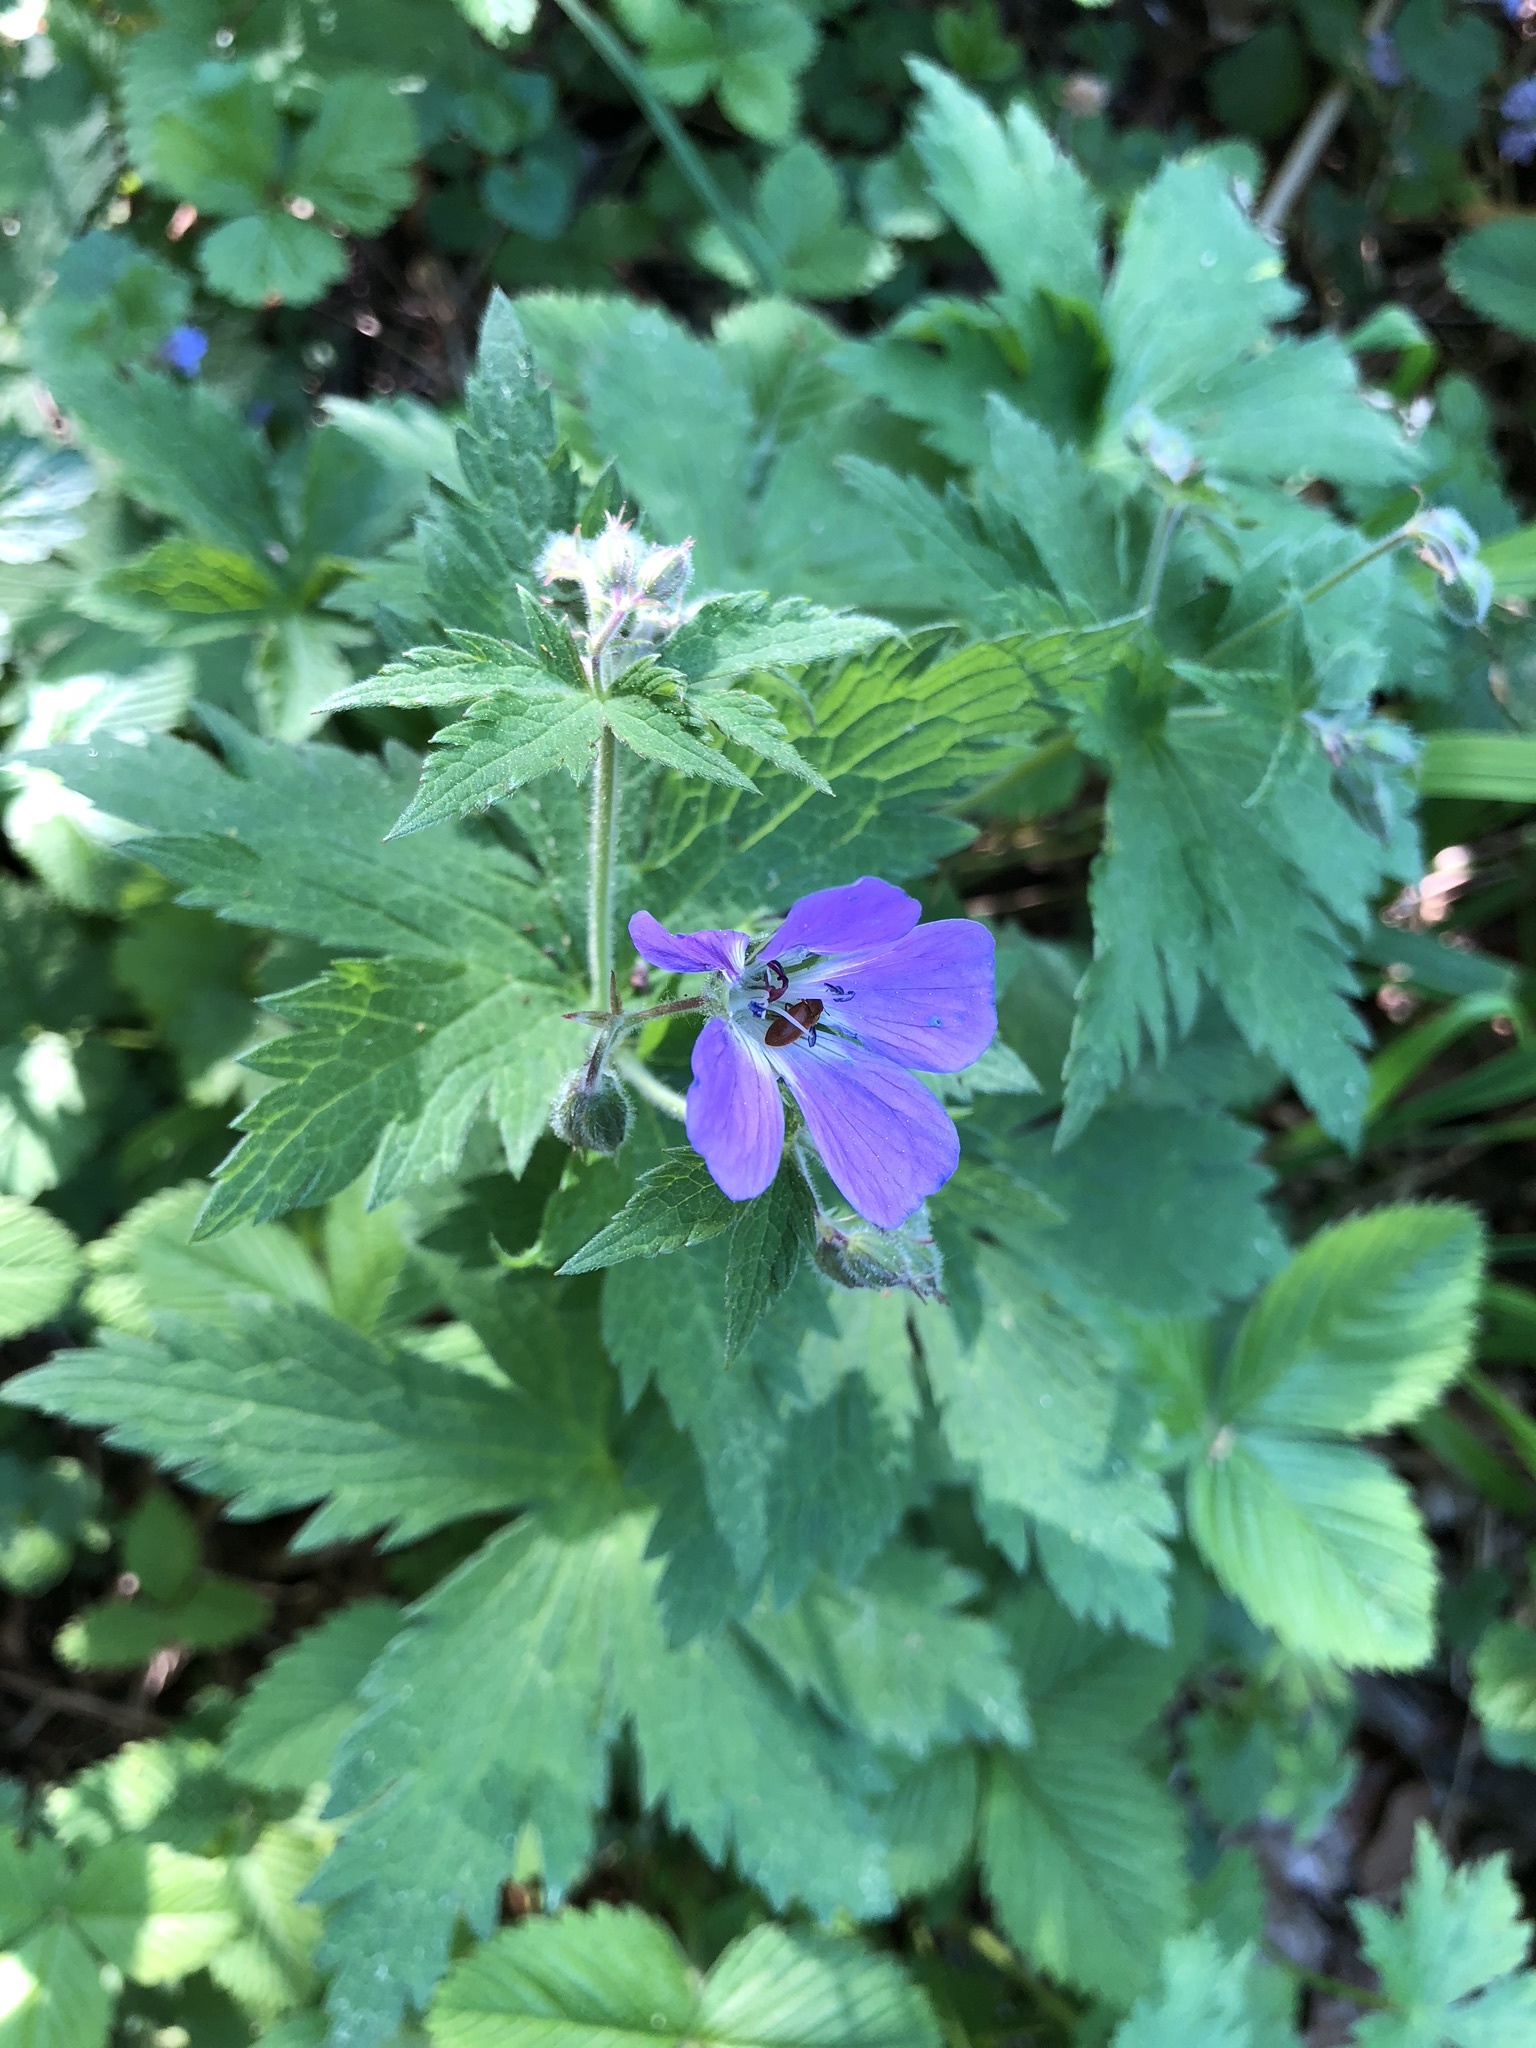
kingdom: Plantae
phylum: Tracheophyta
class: Magnoliopsida
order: Geraniales
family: Geraniaceae
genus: Geranium
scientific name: Geranium sylvaticum
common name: Wood crane's-bill
